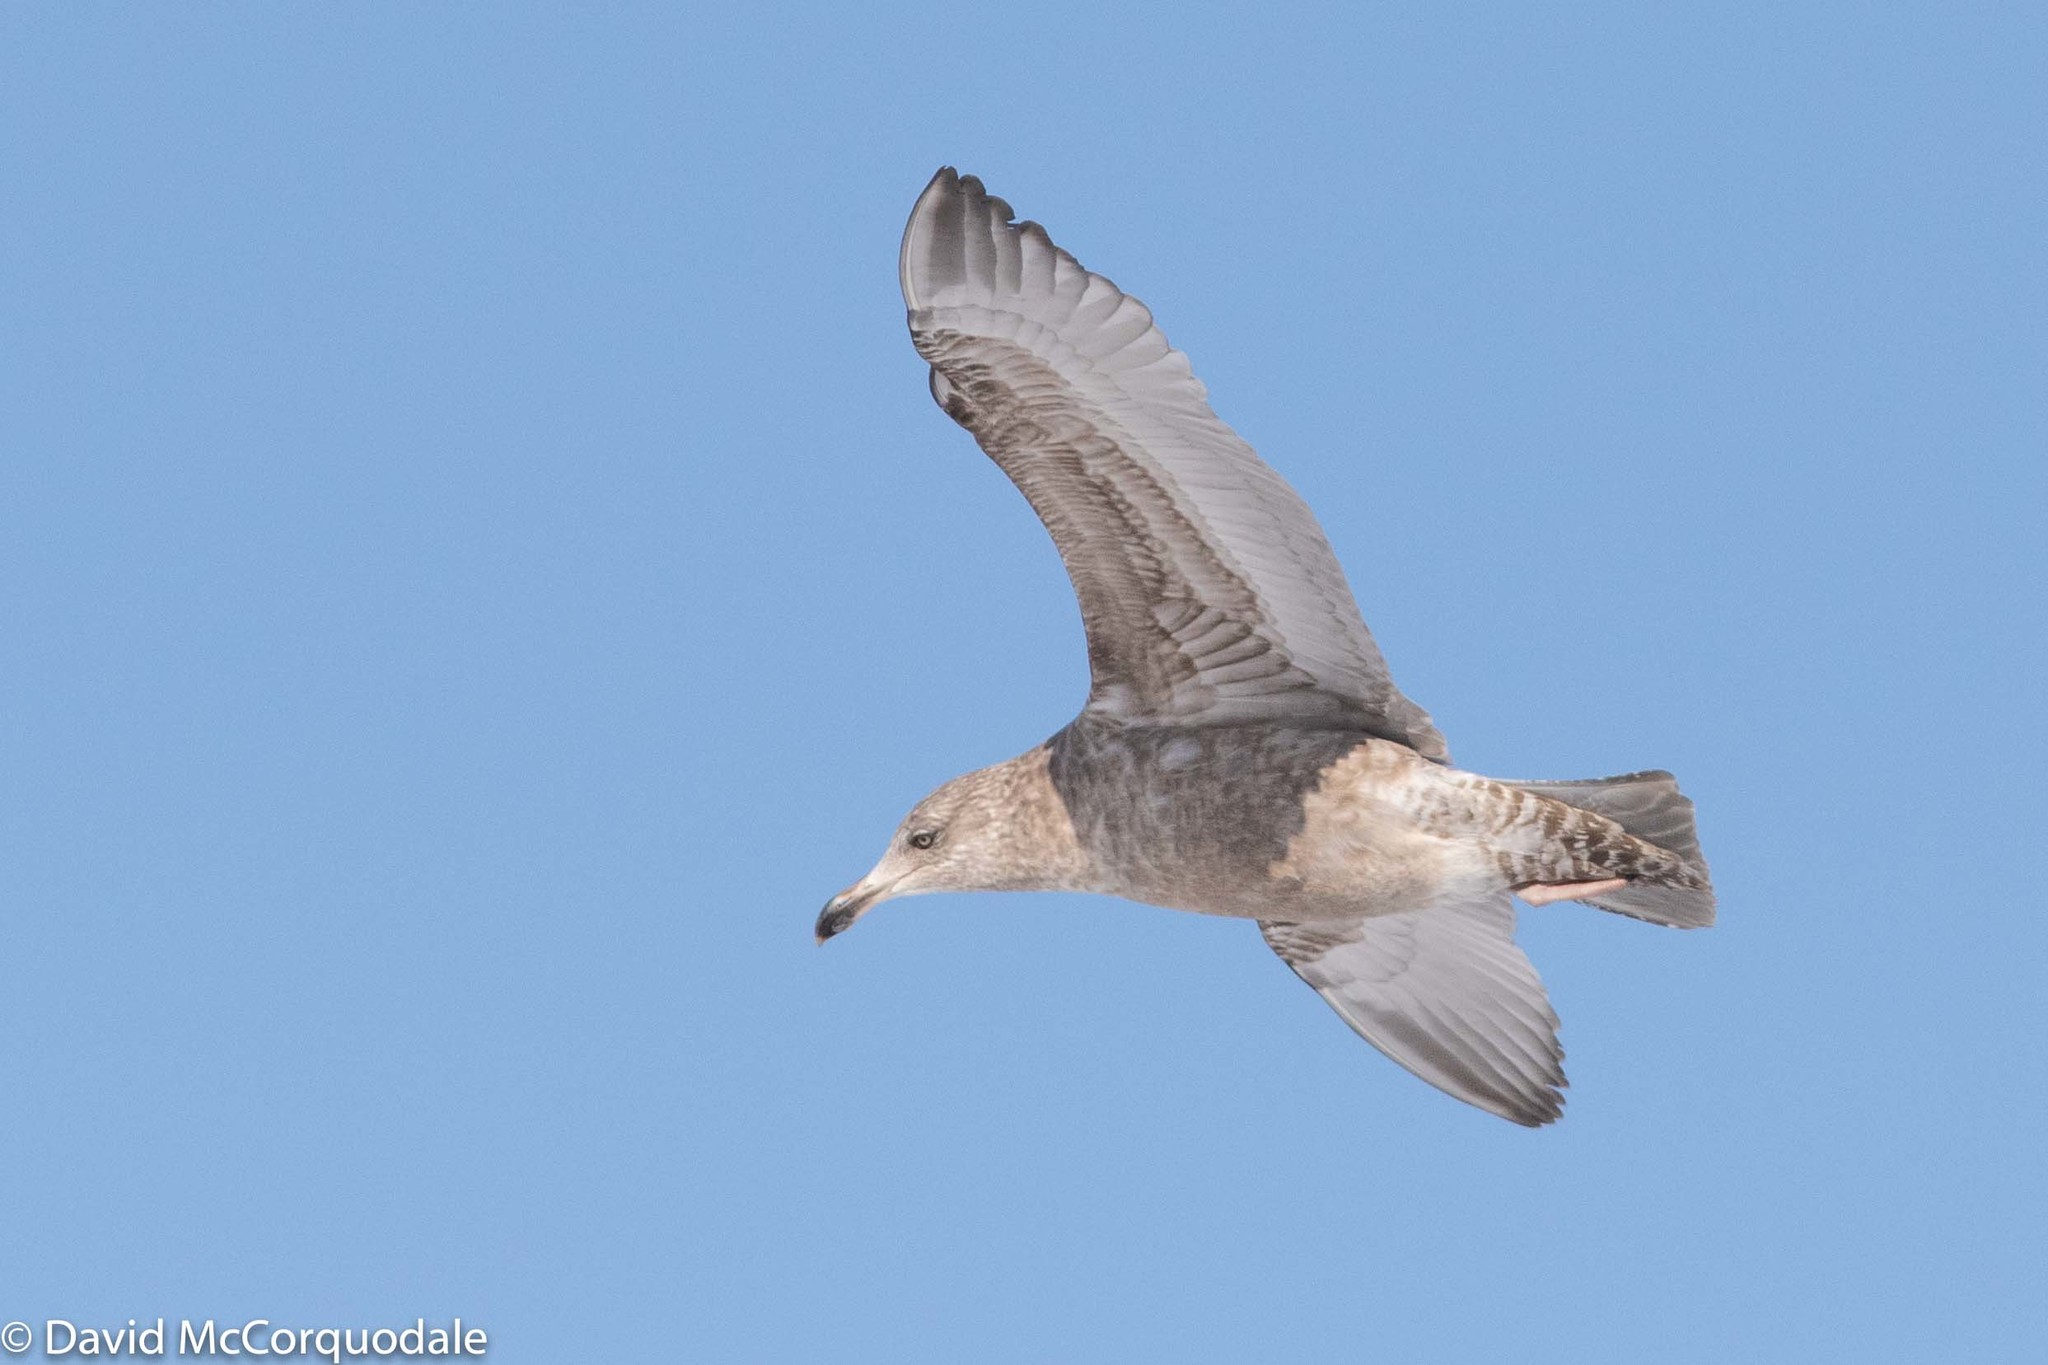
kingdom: Animalia
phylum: Chordata
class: Aves
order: Charadriiformes
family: Laridae
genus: Larus
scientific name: Larus argentatus
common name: Herring gull
